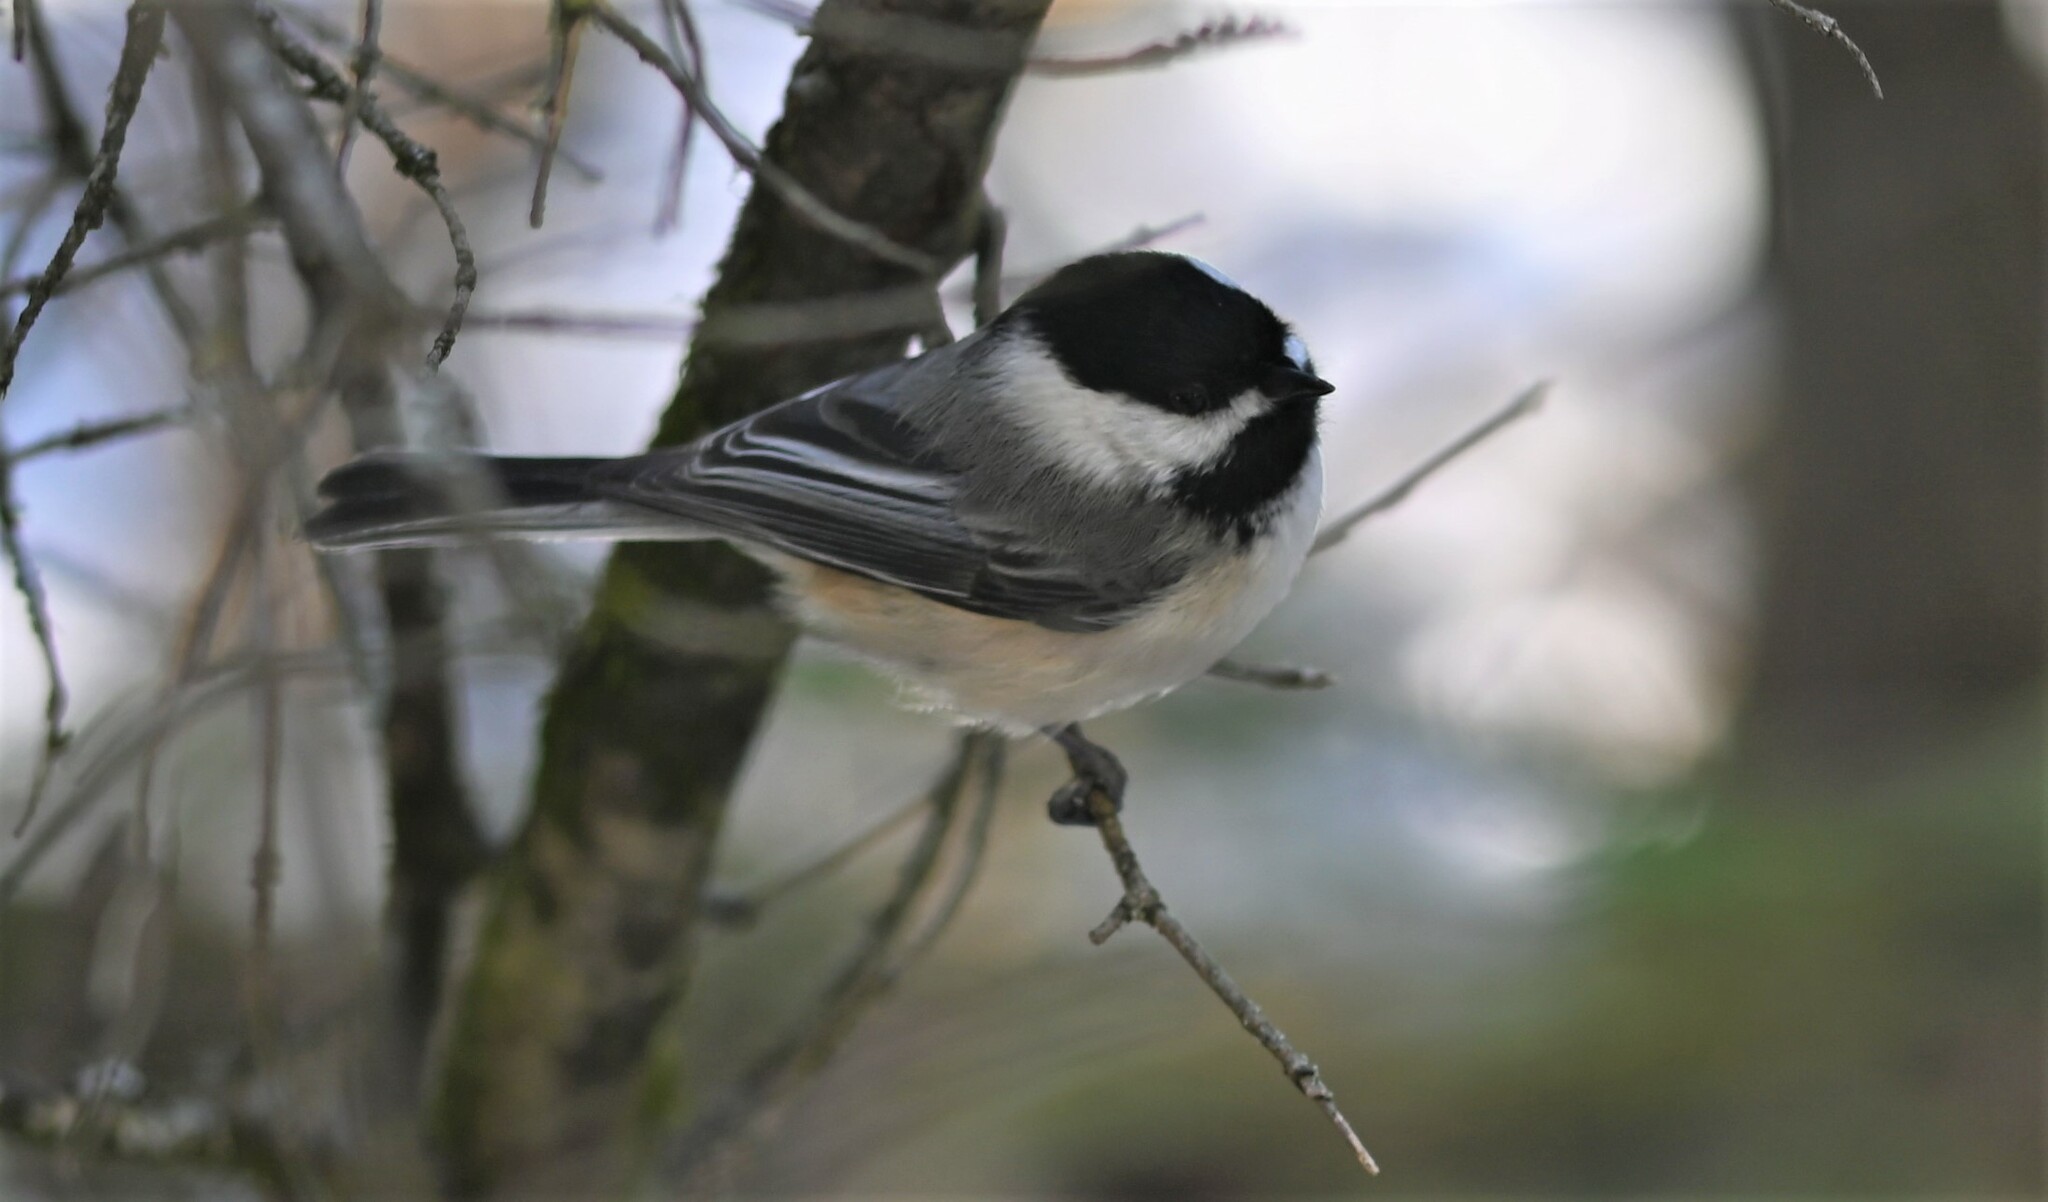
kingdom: Animalia
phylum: Chordata
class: Aves
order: Passeriformes
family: Paridae
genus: Poecile
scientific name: Poecile atricapillus
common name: Black-capped chickadee
